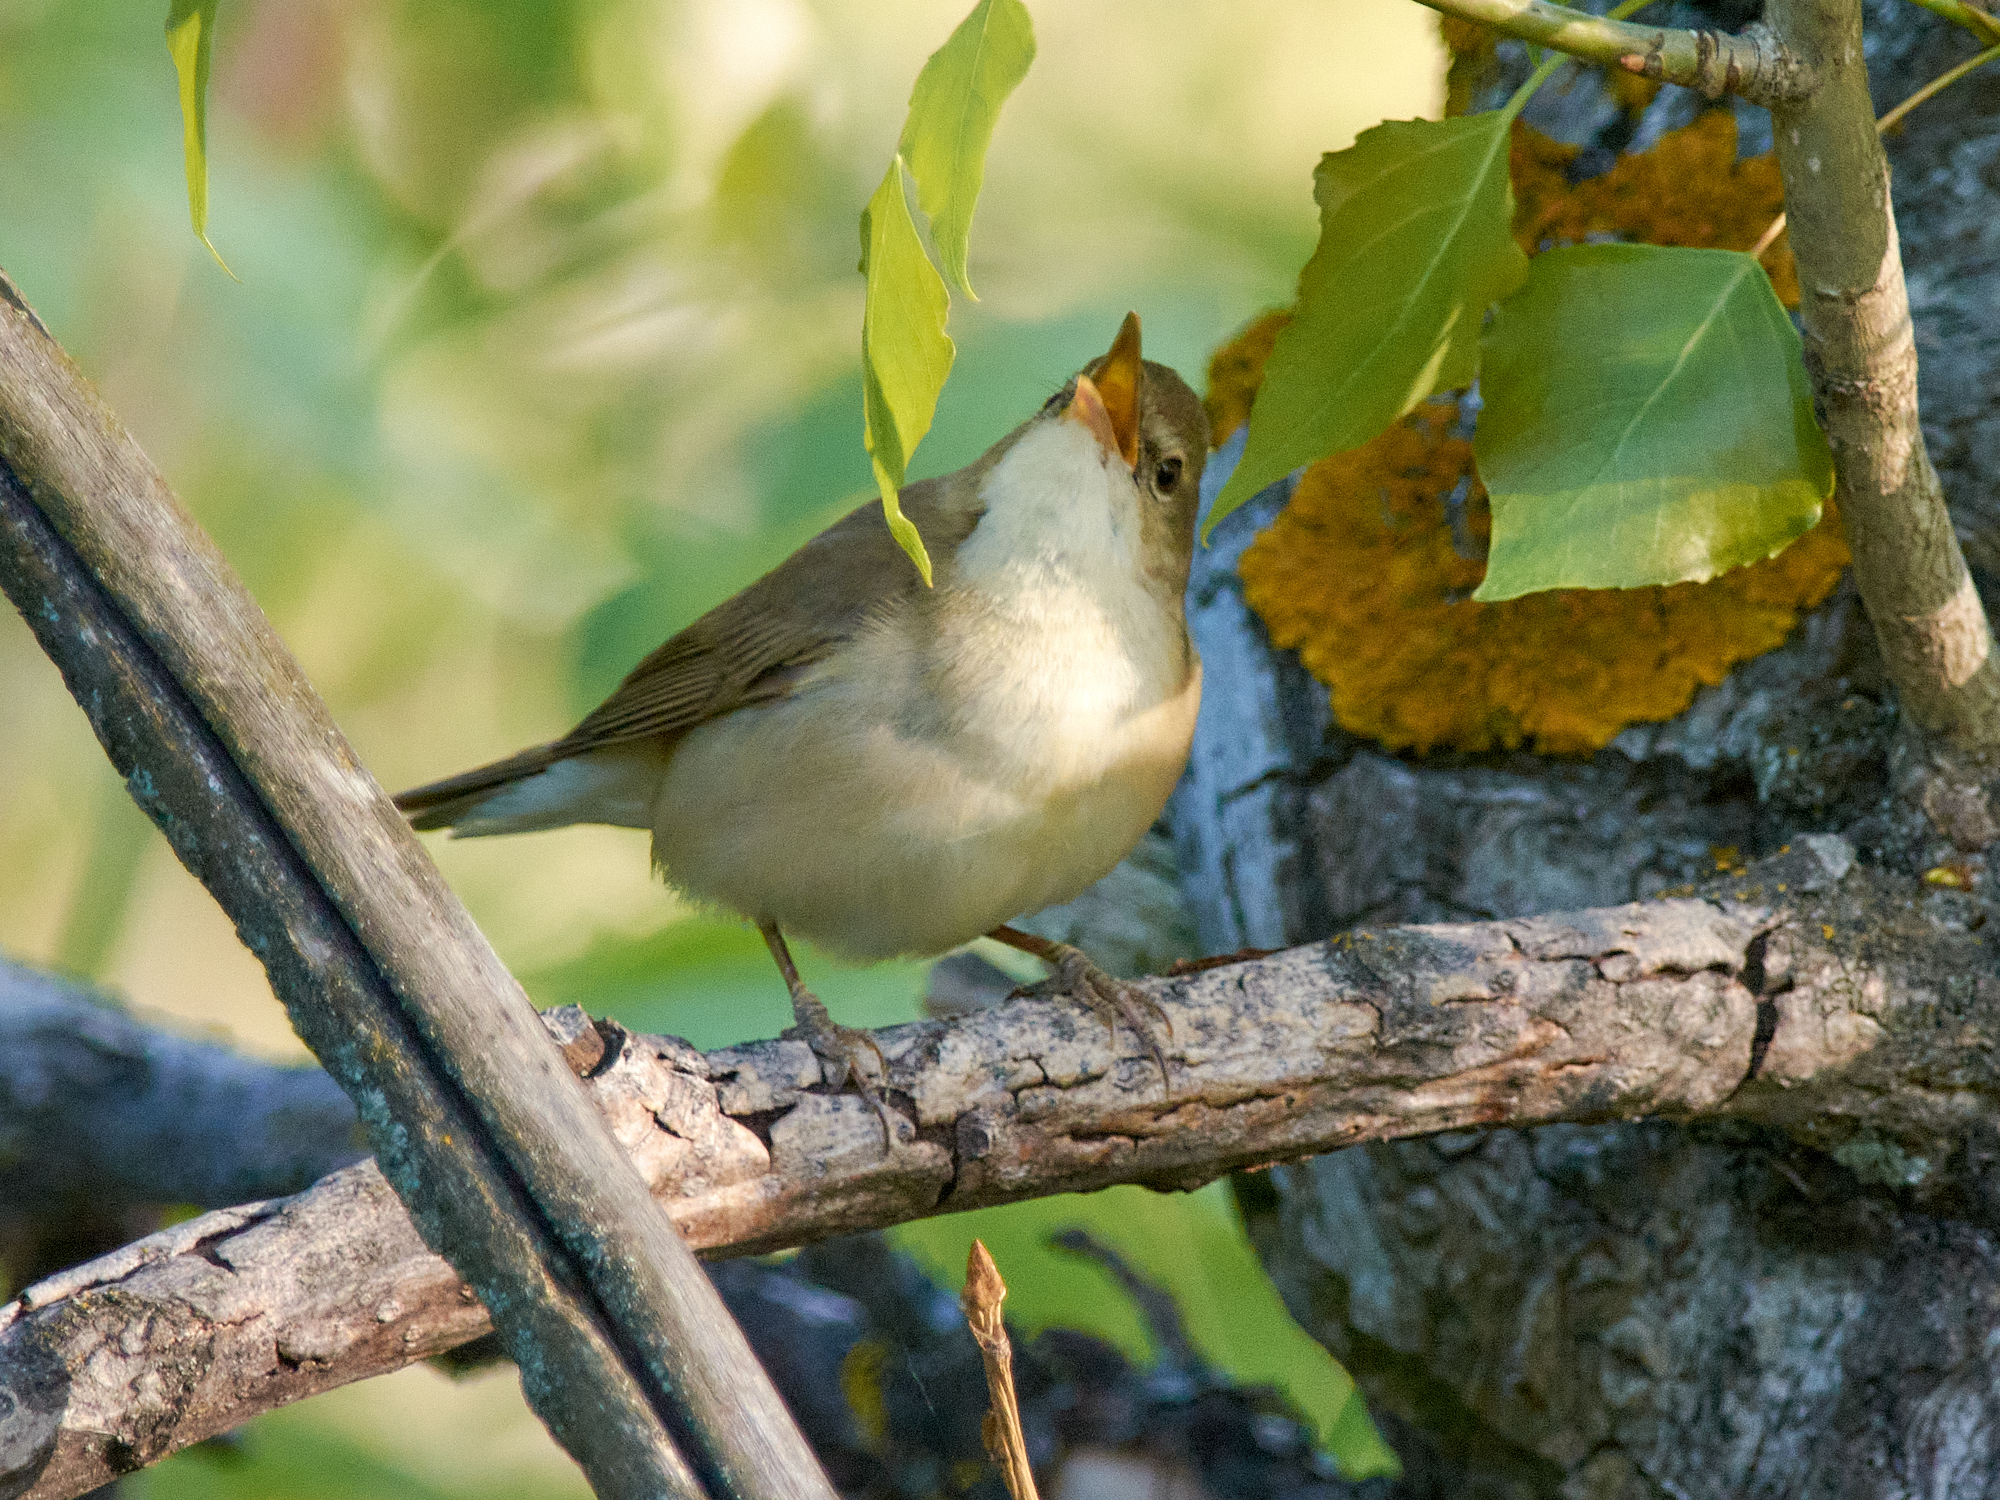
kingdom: Animalia
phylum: Chordata
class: Aves
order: Passeriformes
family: Acrocephalidae
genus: Acrocephalus
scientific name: Acrocephalus dumetorum
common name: Blyth's reed warbler
